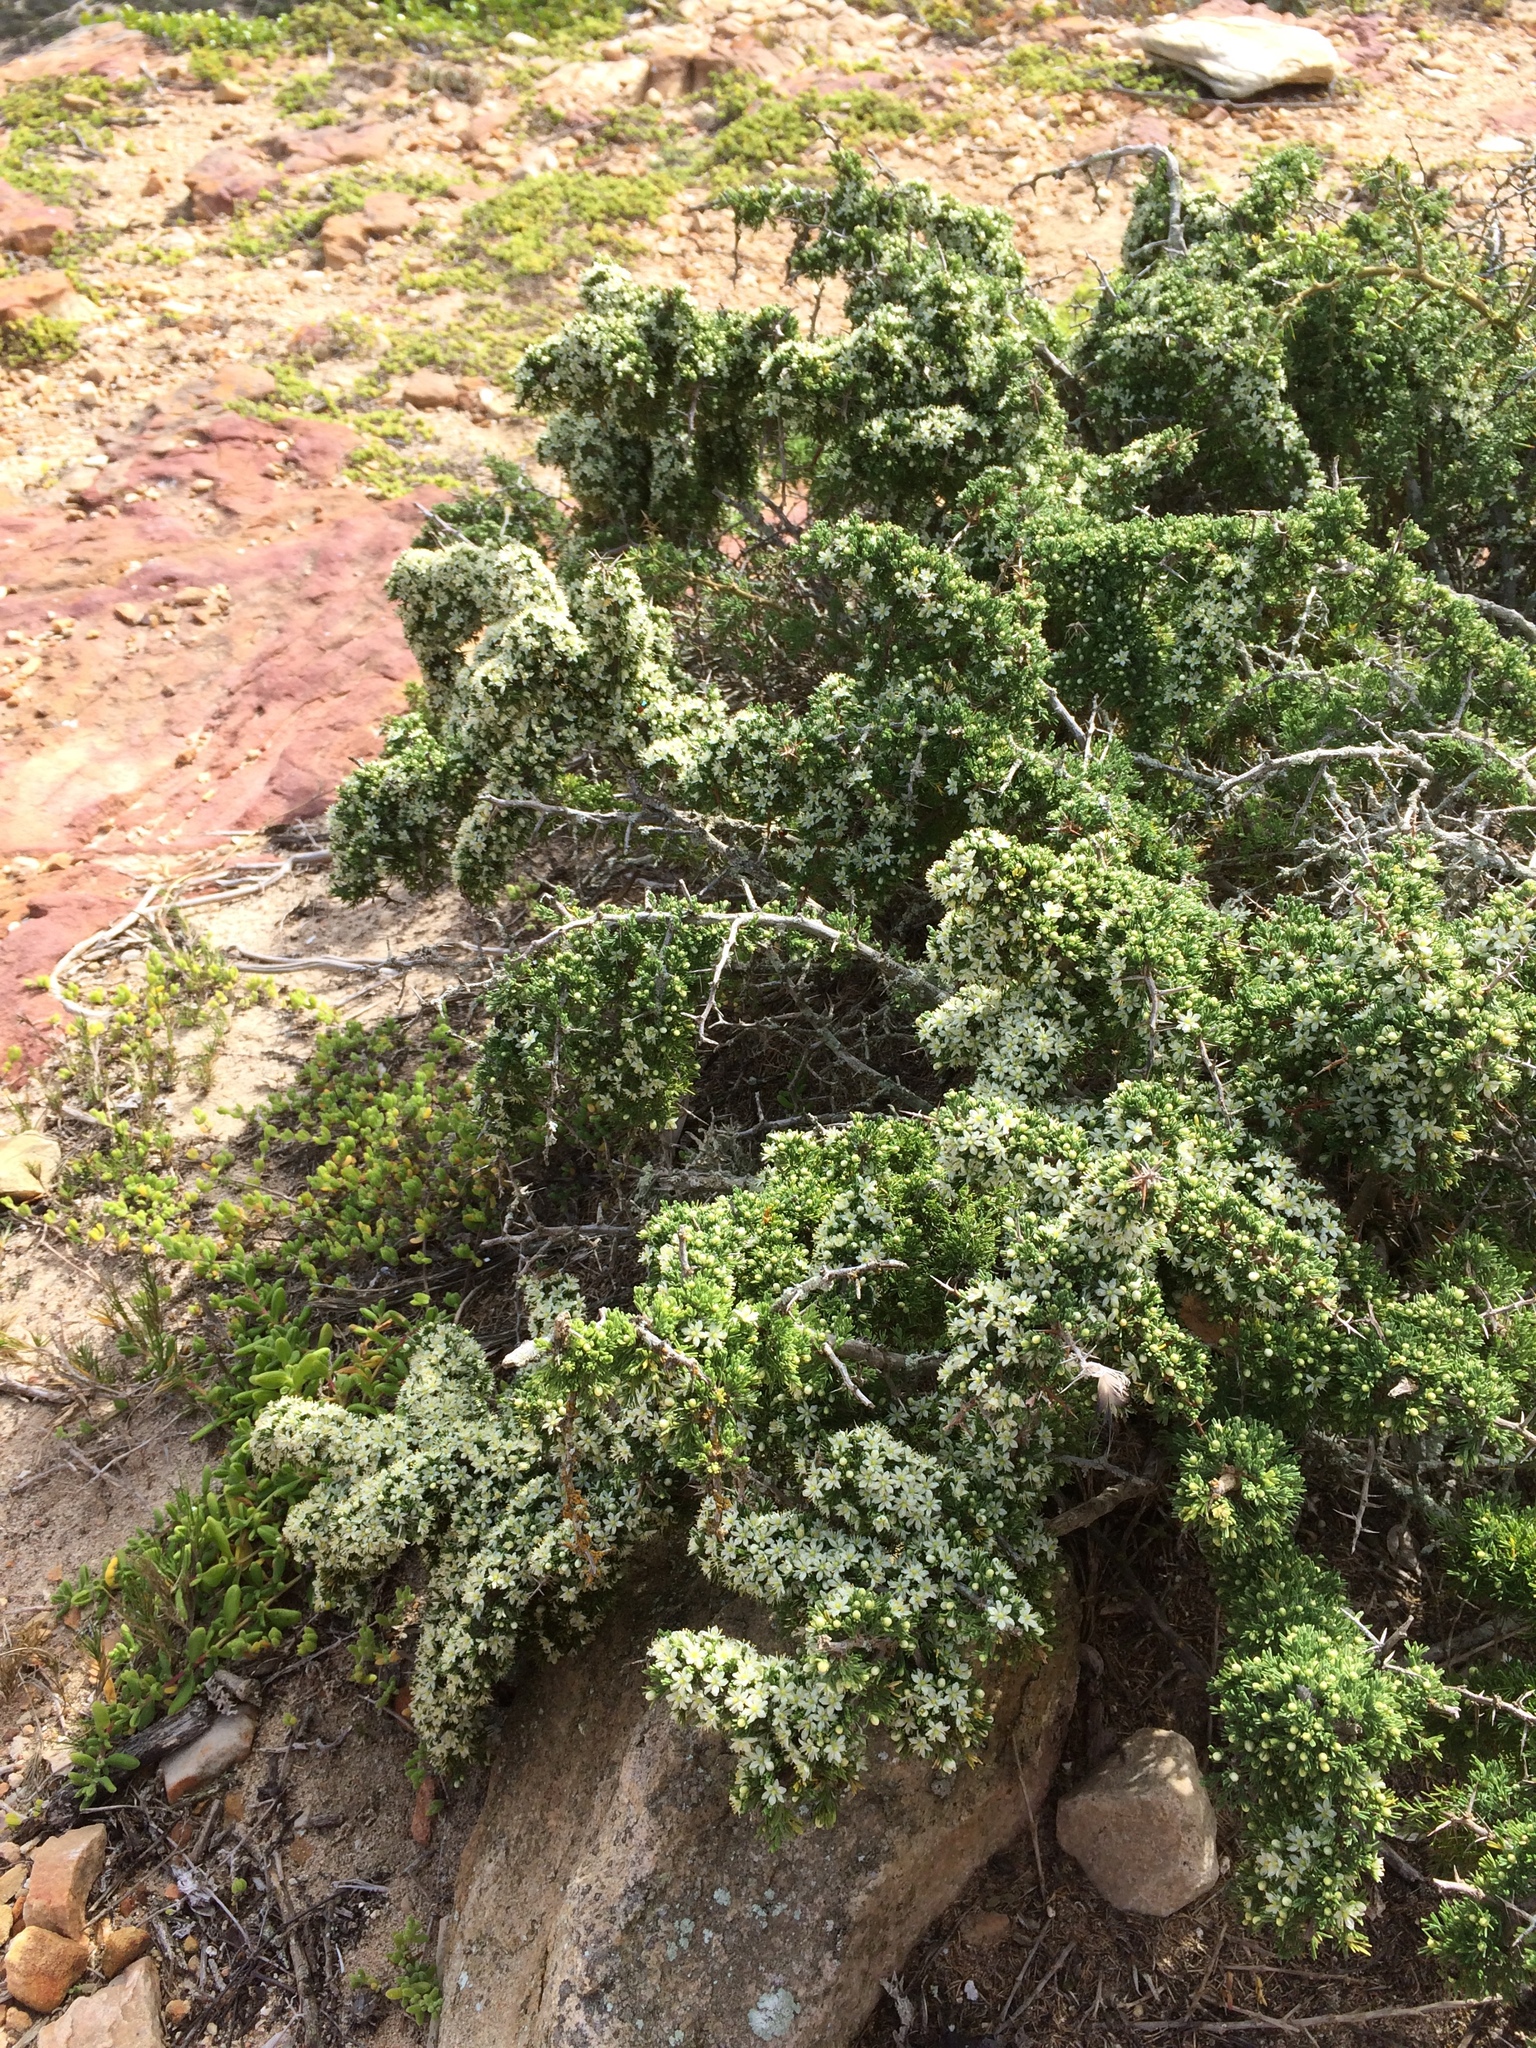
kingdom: Plantae
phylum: Tracheophyta
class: Liliopsida
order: Asparagales
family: Asparagaceae
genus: Asparagus
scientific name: Asparagus capensis
